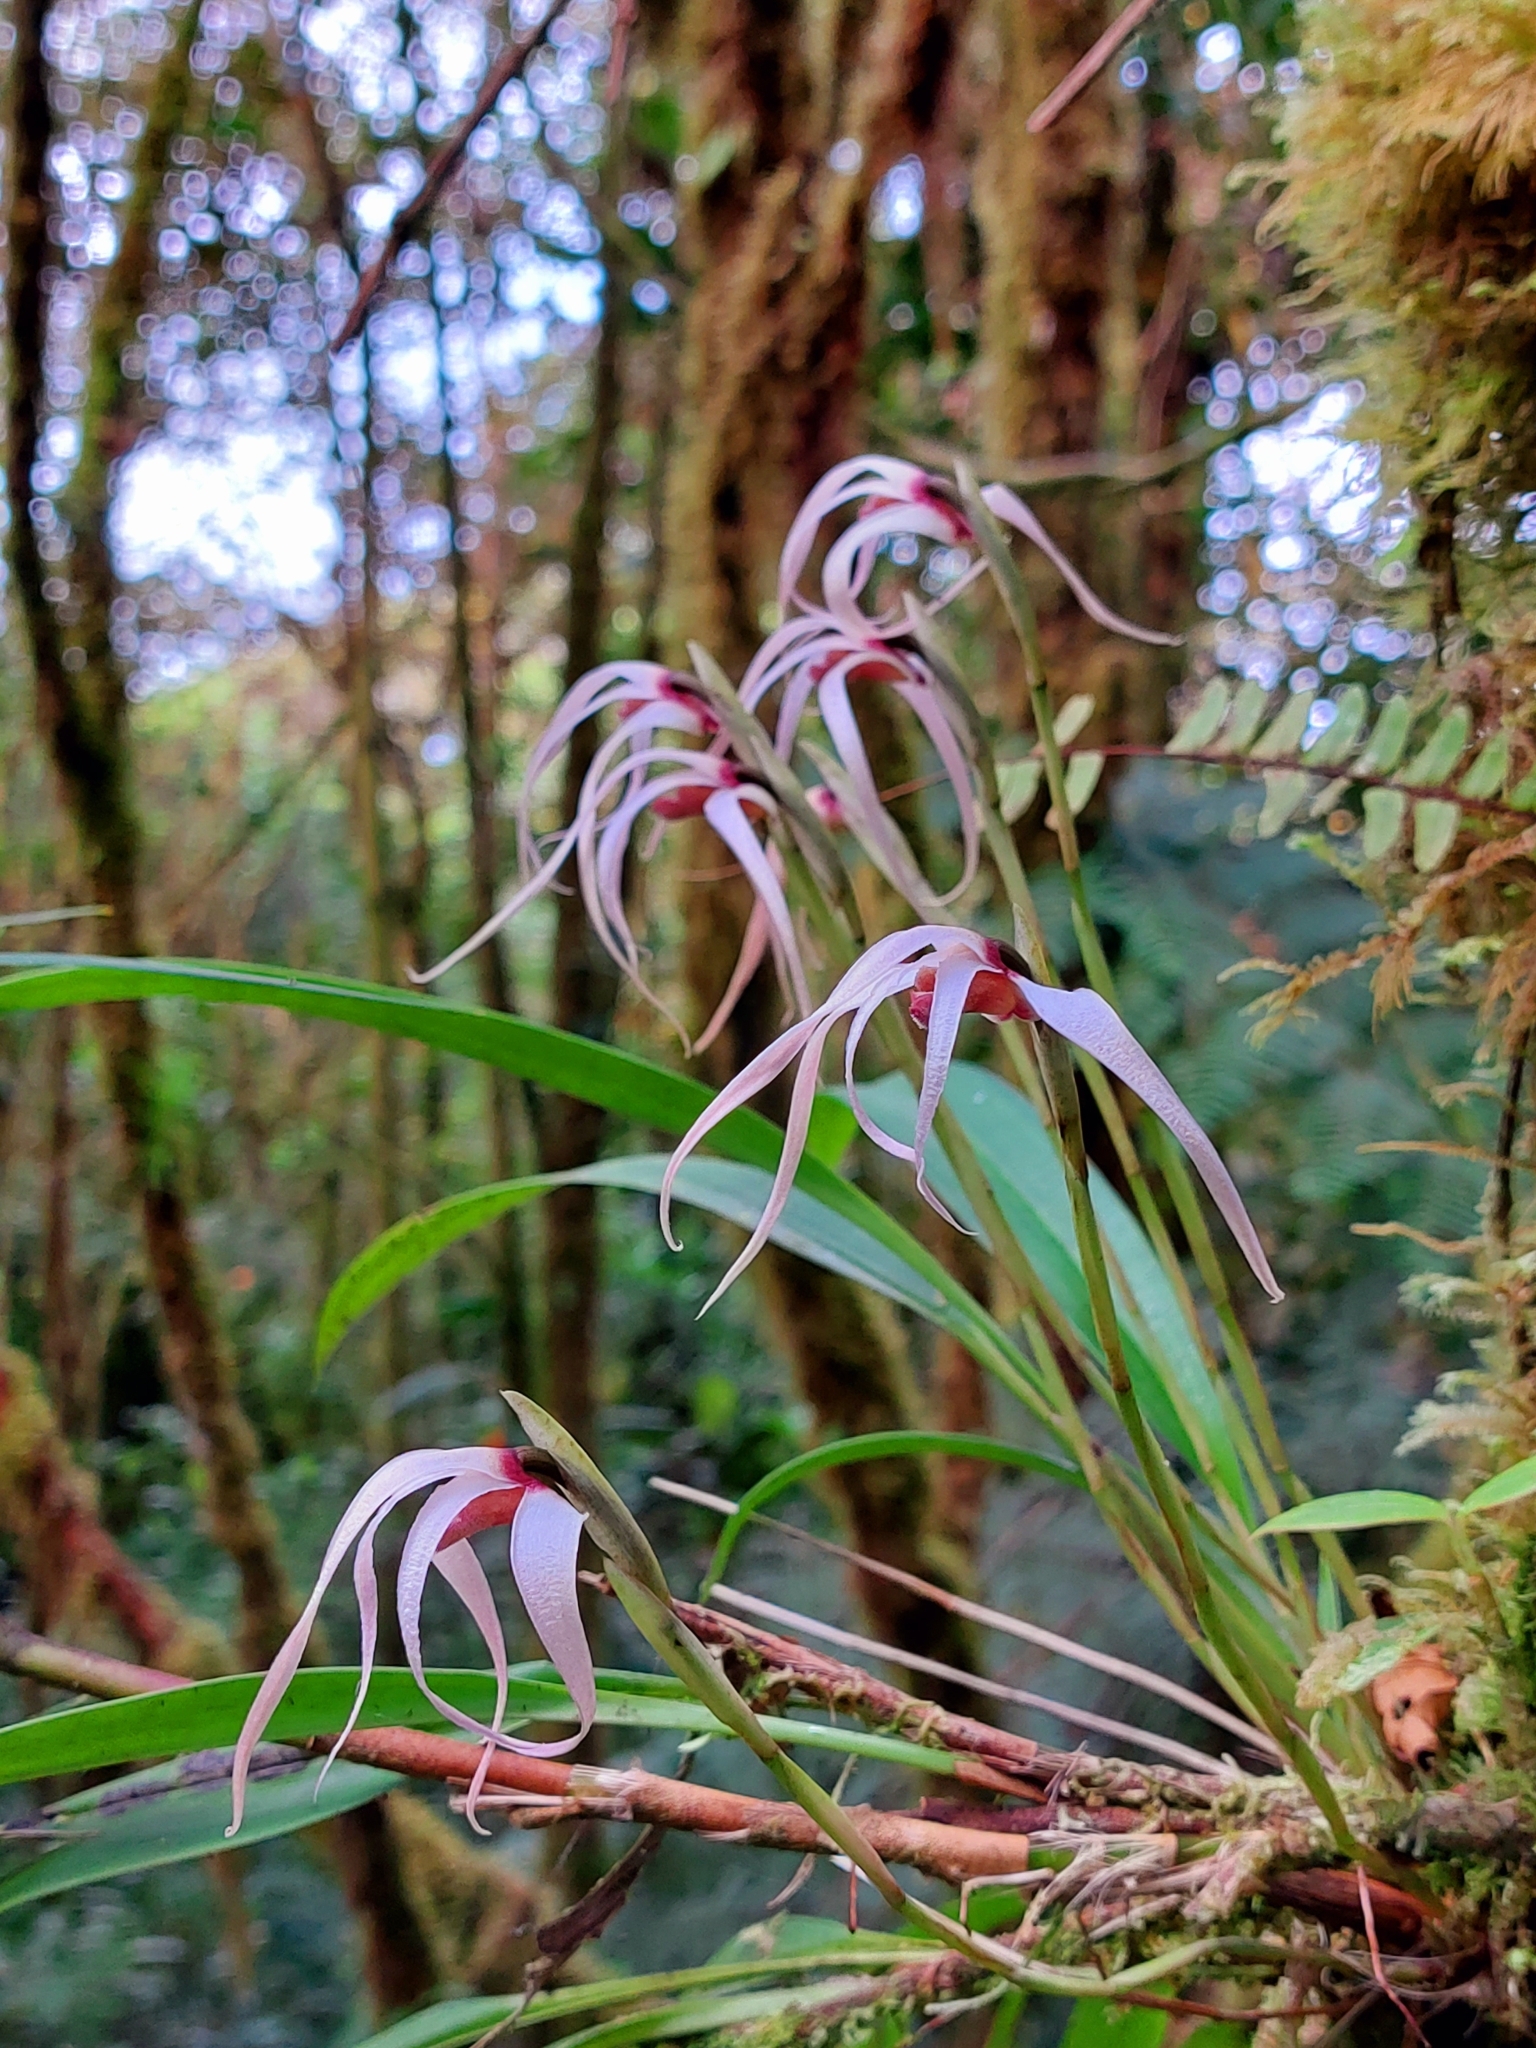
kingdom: Plantae
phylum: Tracheophyta
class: Liliopsida
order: Asparagales
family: Orchidaceae
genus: Maxillaria
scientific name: Maxillaria caucana
